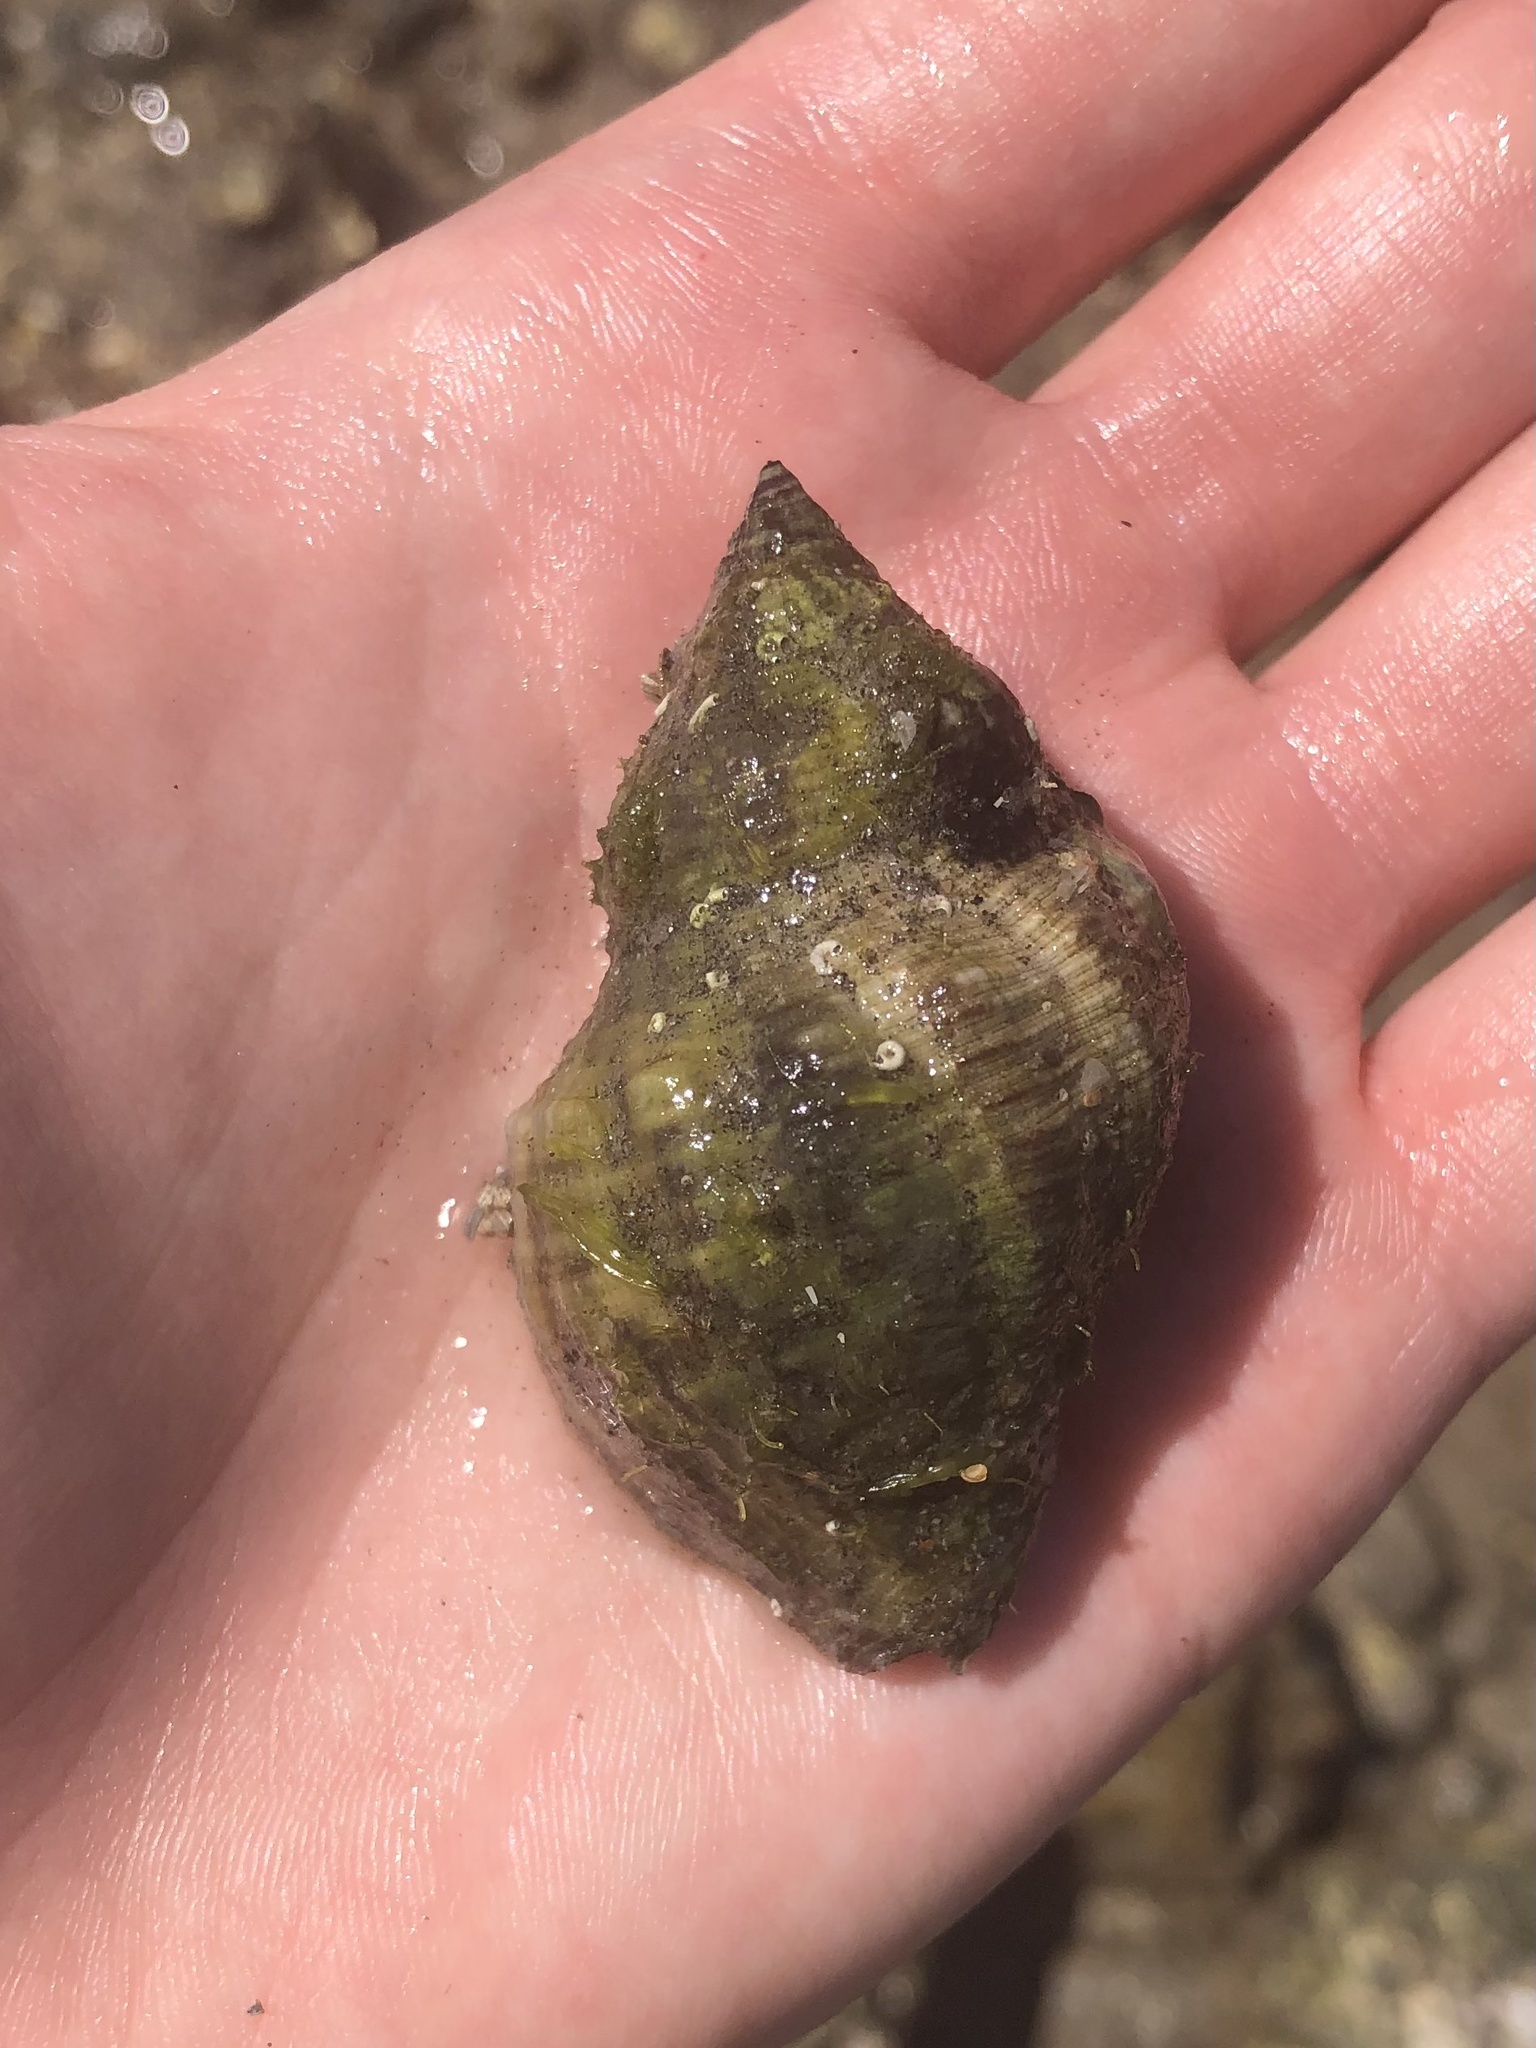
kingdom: Animalia
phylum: Mollusca
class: Gastropoda
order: Neogastropoda
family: Muricidae
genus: Stramonita
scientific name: Stramonita floridana
